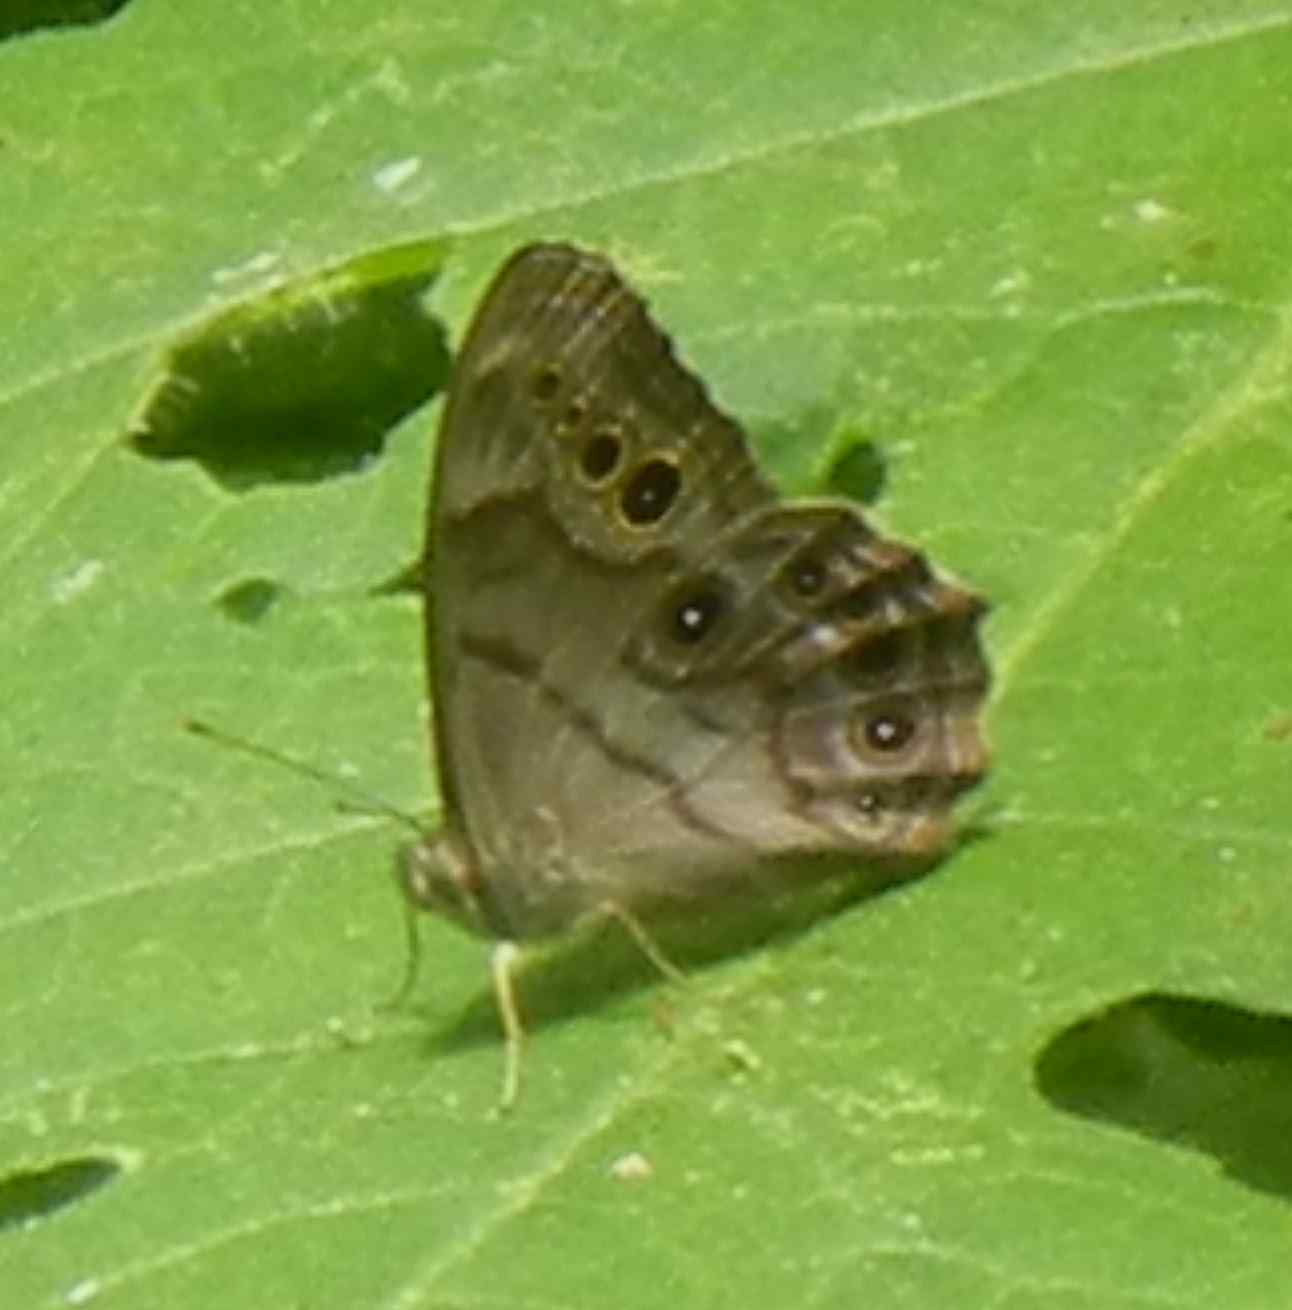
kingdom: Animalia
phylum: Arthropoda
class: Insecta
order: Lepidoptera
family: Nymphalidae
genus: Lethe
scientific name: Lethe anthedon
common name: Northern pearly-eye
